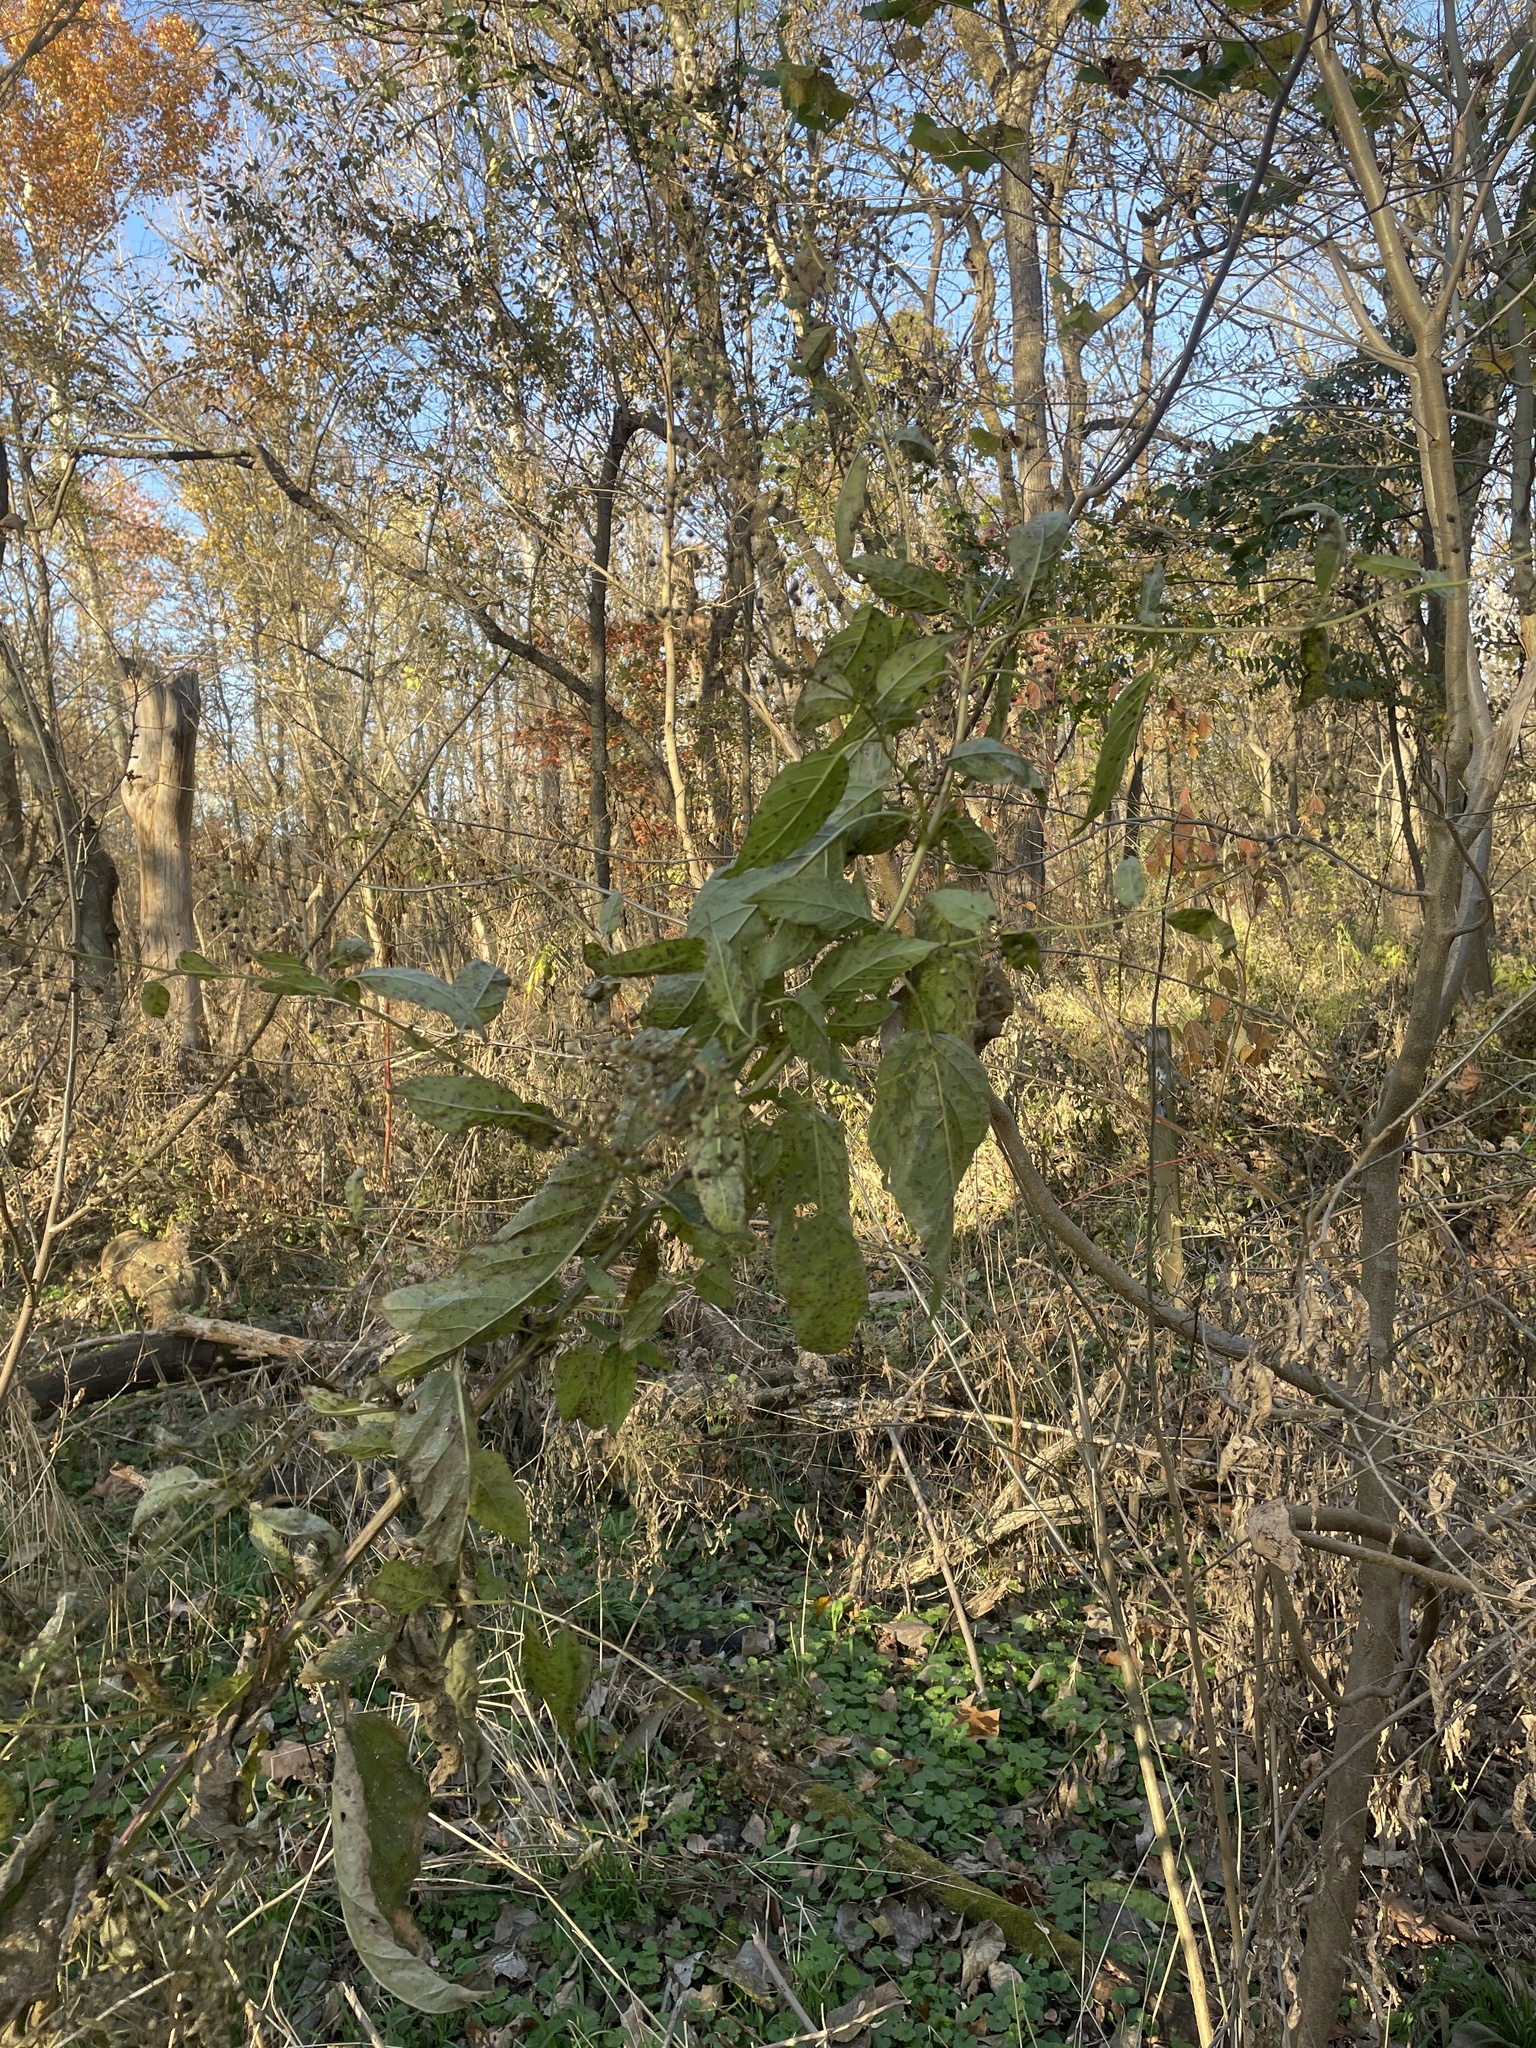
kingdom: Plantae
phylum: Tracheophyta
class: Magnoliopsida
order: Lamiales
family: Scrophulariaceae
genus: Scrophularia
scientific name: Scrophularia marilandica
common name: Eastern figwort
